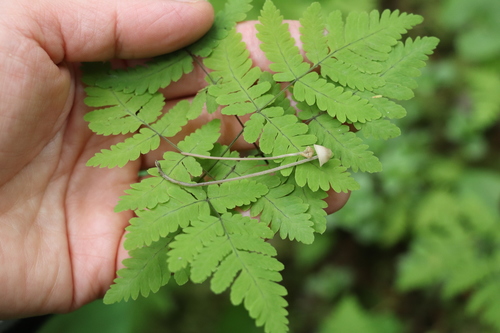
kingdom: Fungi
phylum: Basidiomycota
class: Agaricomycetes
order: Agaricales
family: Mycenaceae
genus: Hemimycena
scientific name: Hemimycena
